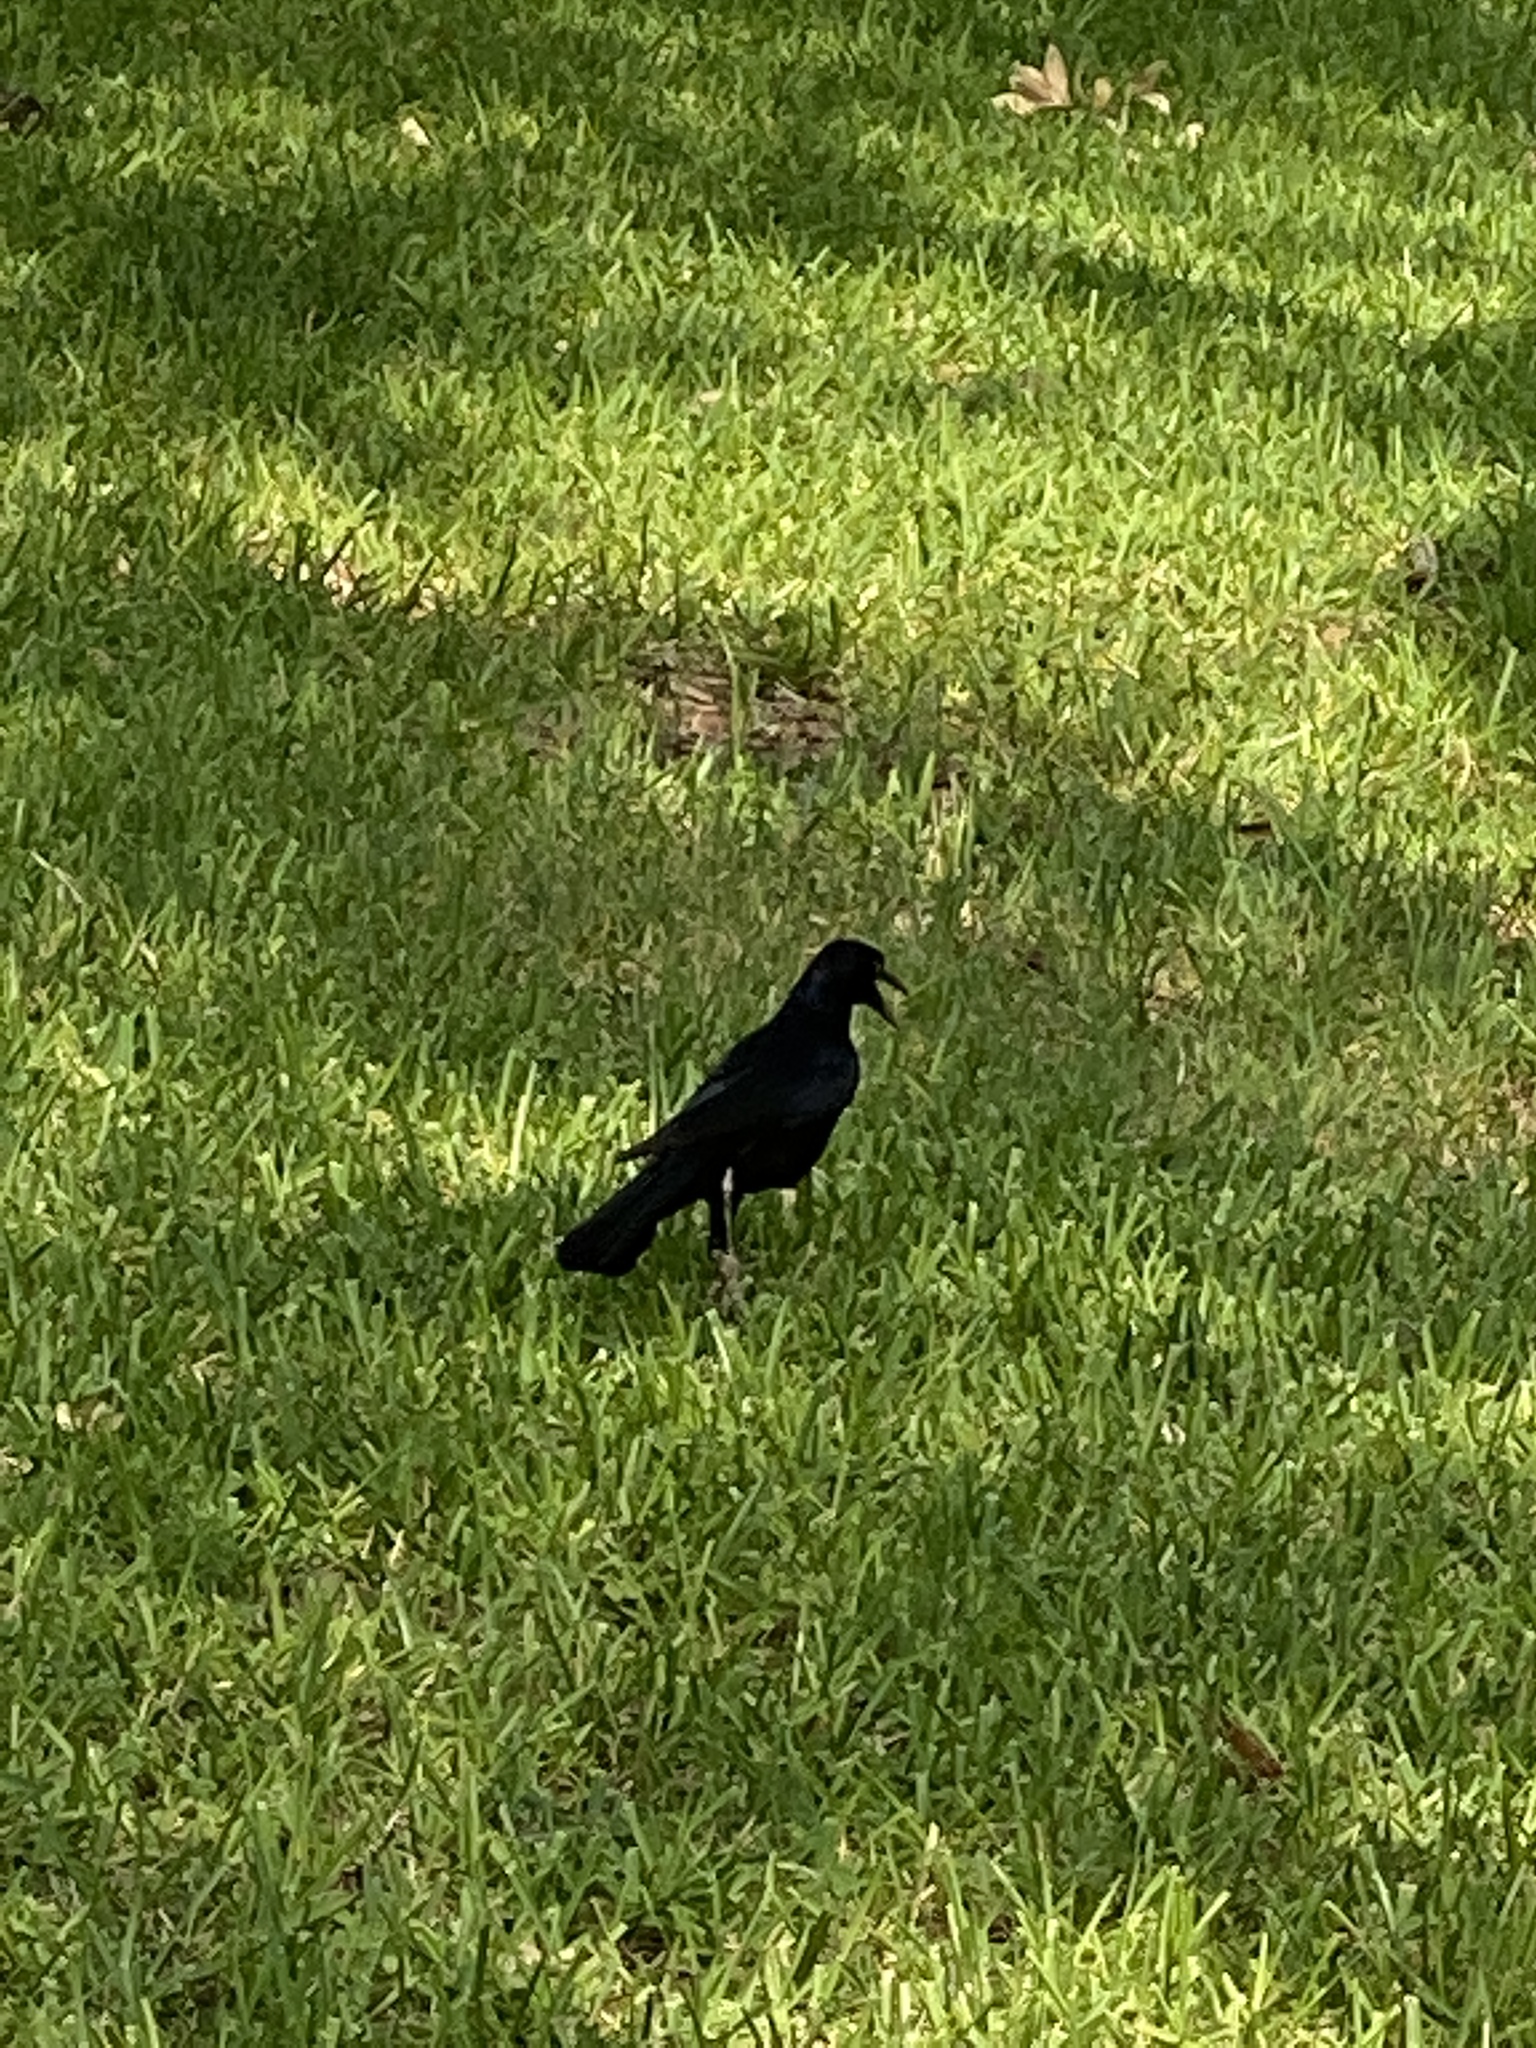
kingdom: Animalia
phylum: Chordata
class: Aves
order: Passeriformes
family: Icteridae
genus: Quiscalus
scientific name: Quiscalus mexicanus
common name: Great-tailed grackle
